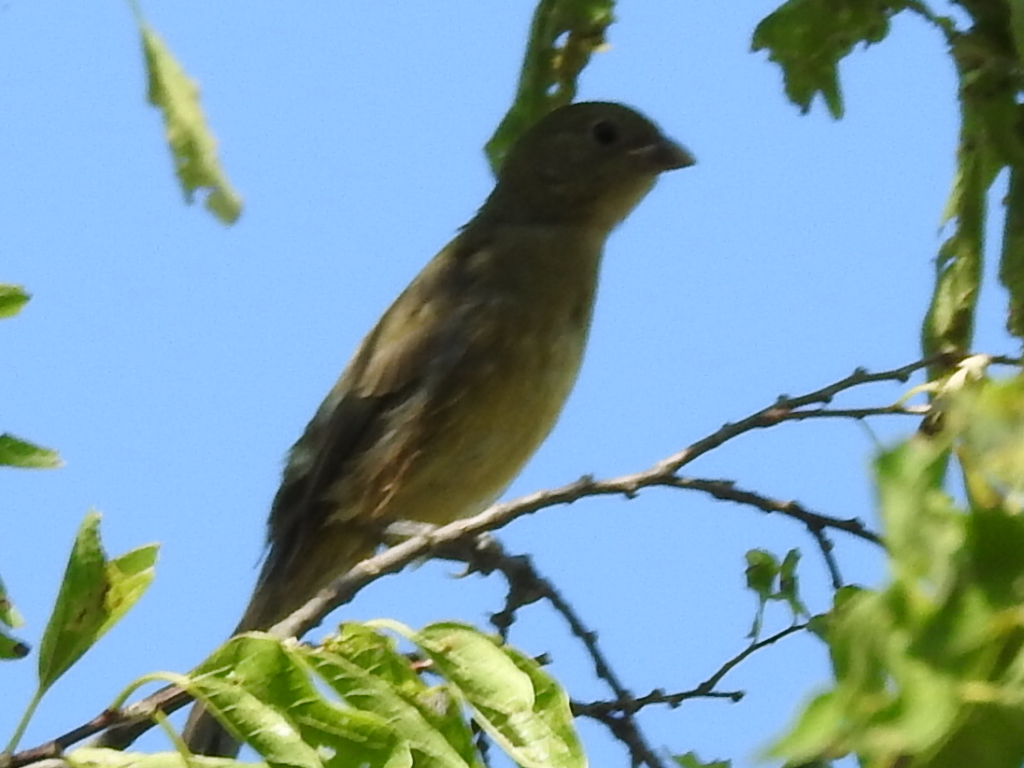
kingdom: Animalia
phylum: Chordata
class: Aves
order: Passeriformes
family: Cardinalidae
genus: Passerina
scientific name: Passerina ciris
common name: Painted bunting
